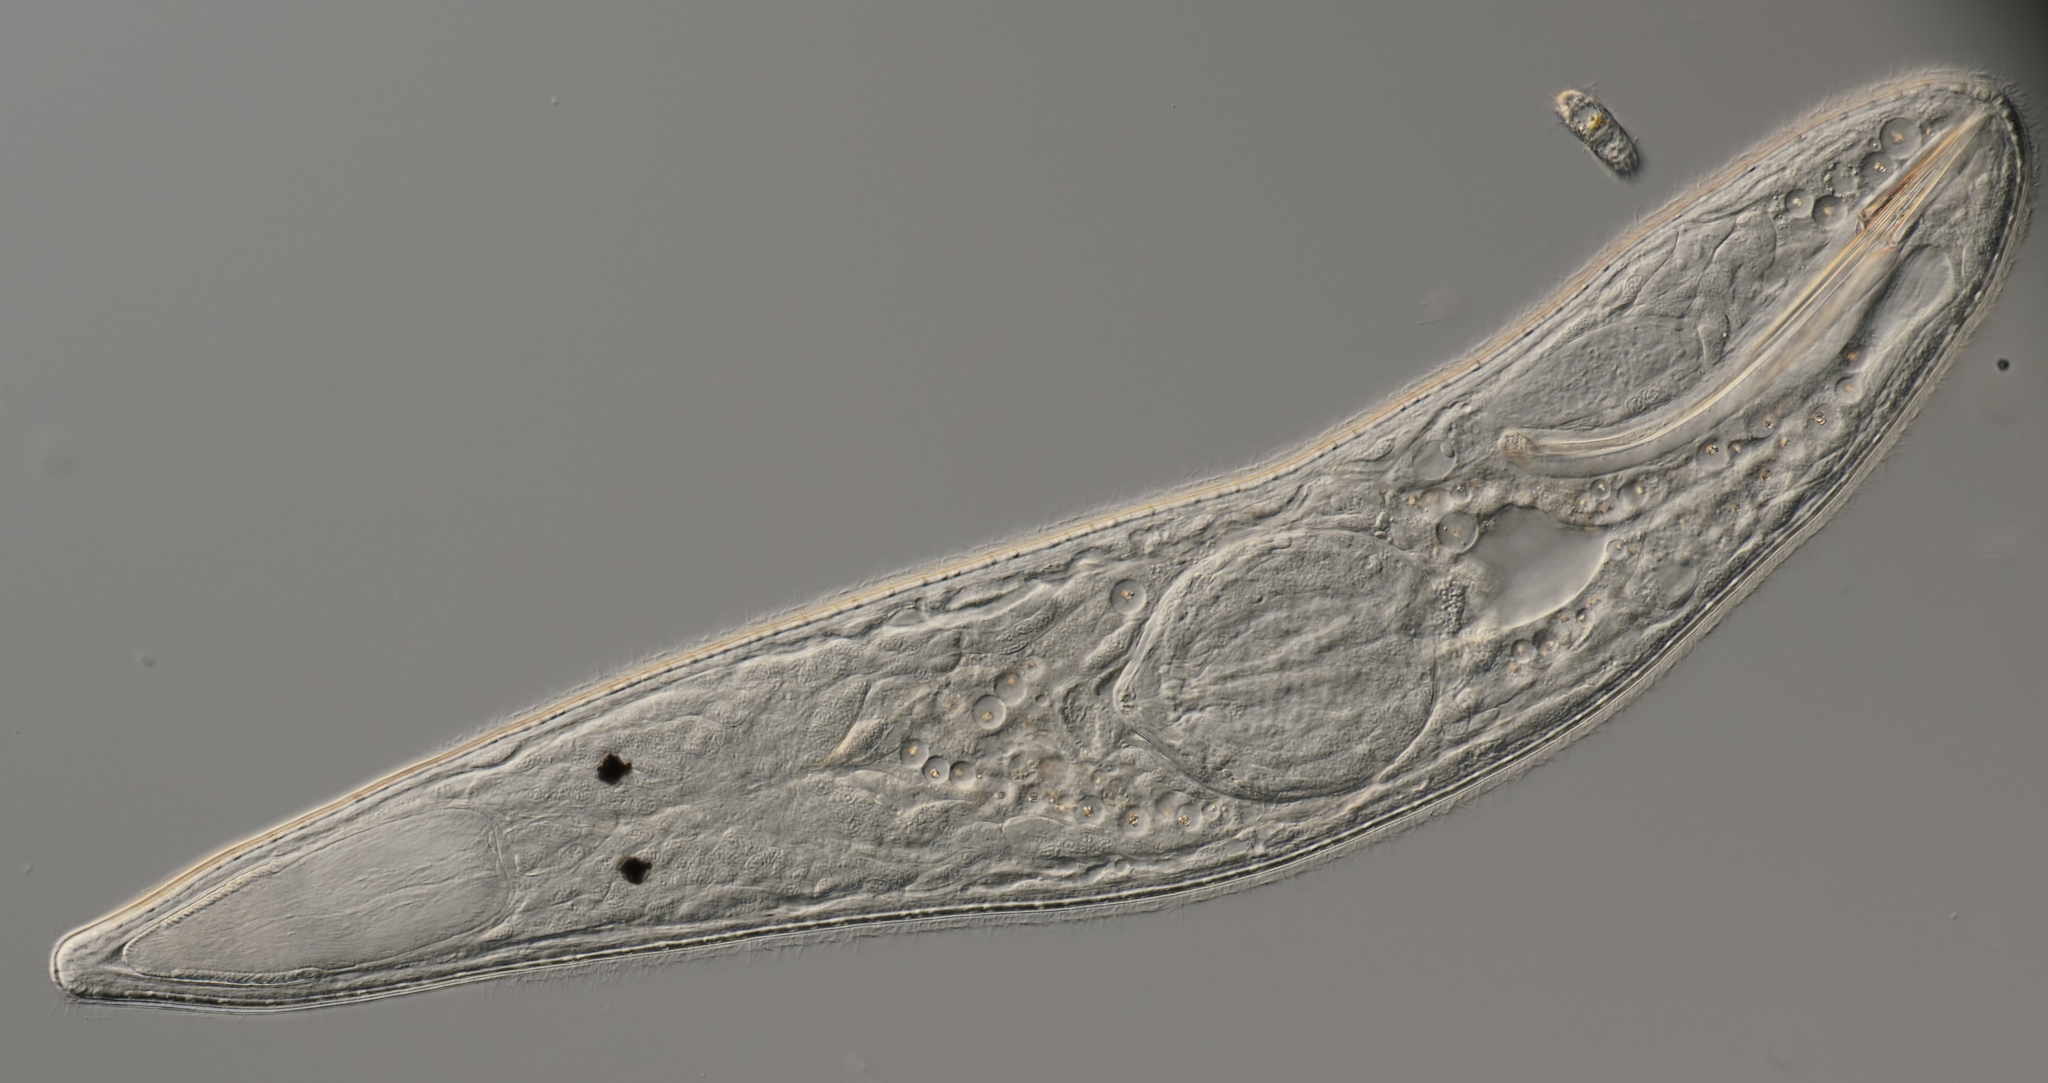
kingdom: Animalia
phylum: Platyhelminthes
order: Rhabdocoela
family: Polycystididae
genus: Gyratrix
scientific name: Gyratrix hermaphroditus
